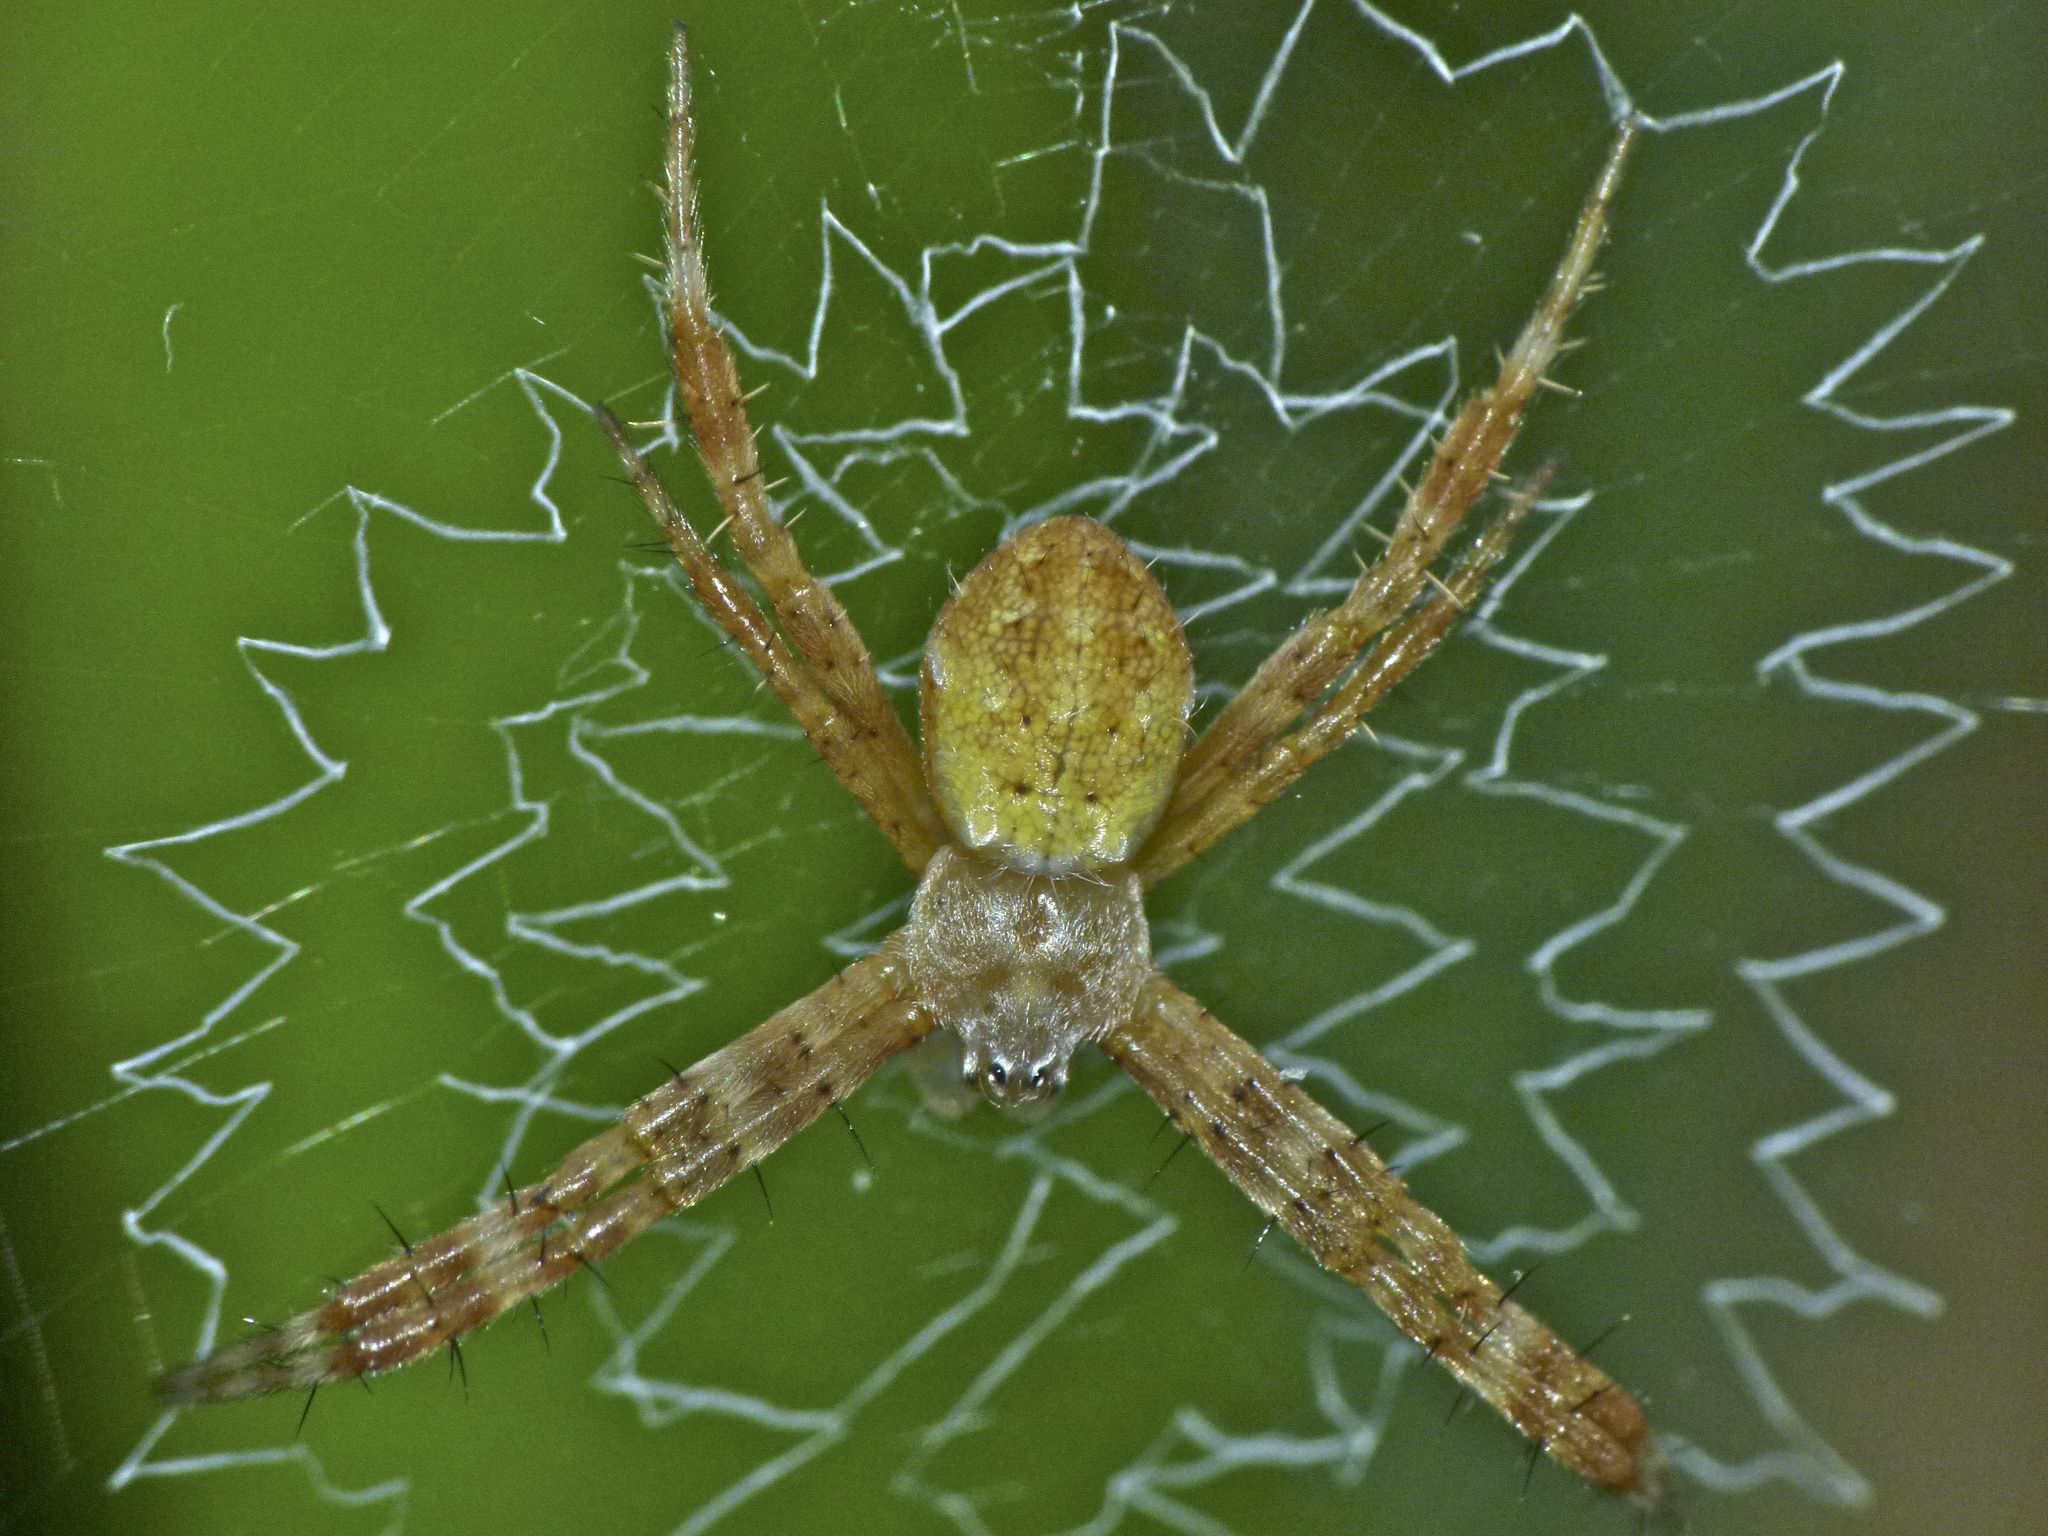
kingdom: Animalia
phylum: Arthropoda
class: Arachnida
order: Araneae
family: Araneidae
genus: Argiope
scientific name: Argiope keyserlingi
